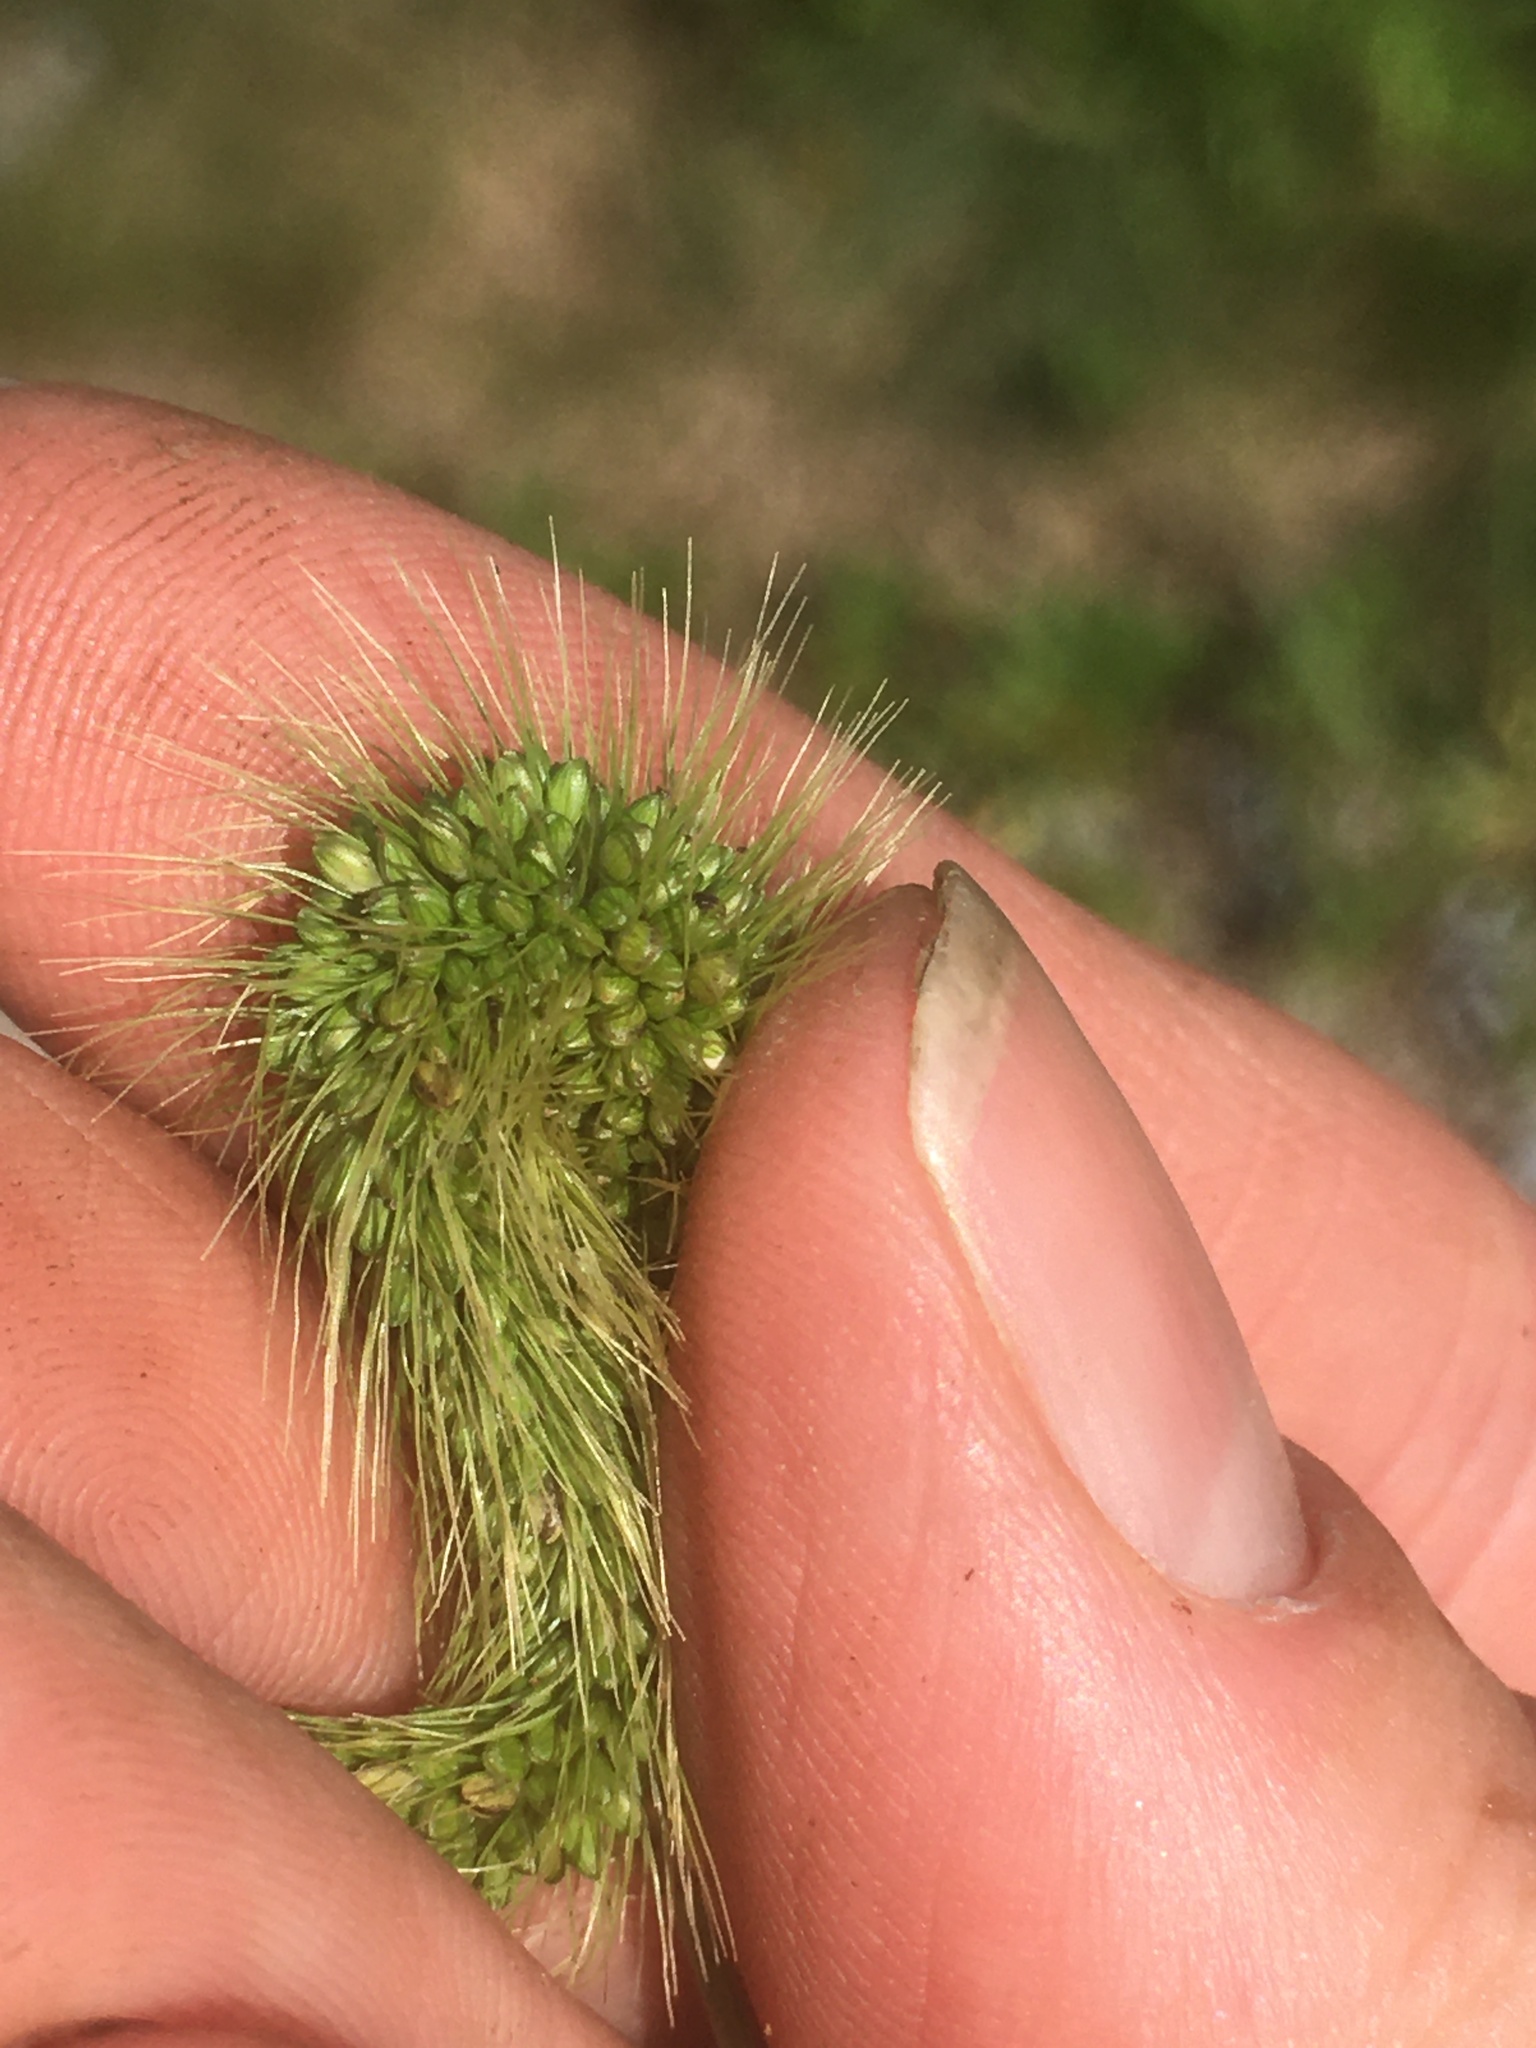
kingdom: Plantae
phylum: Tracheophyta
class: Liliopsida
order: Poales
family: Poaceae
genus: Setaria
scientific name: Setaria faberi
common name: Nodding bristle-grass
